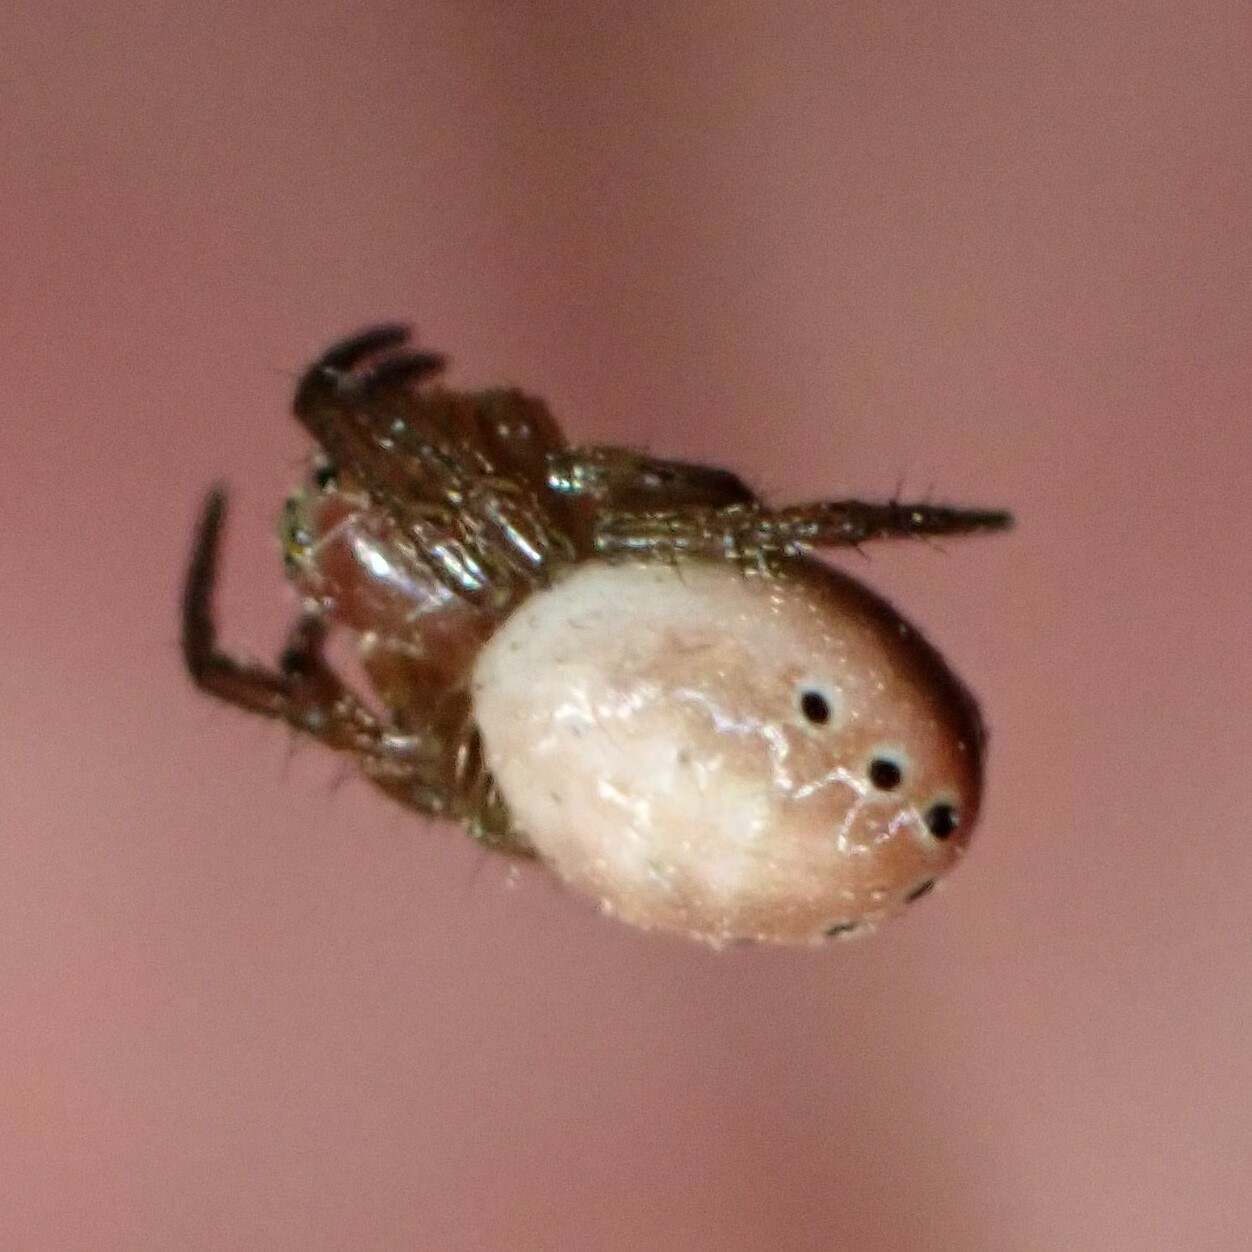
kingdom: Animalia
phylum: Arthropoda
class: Arachnida
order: Araneae
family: Araneidae
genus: Araniella
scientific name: Araniella displicata
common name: Sixspotted orb weaver
